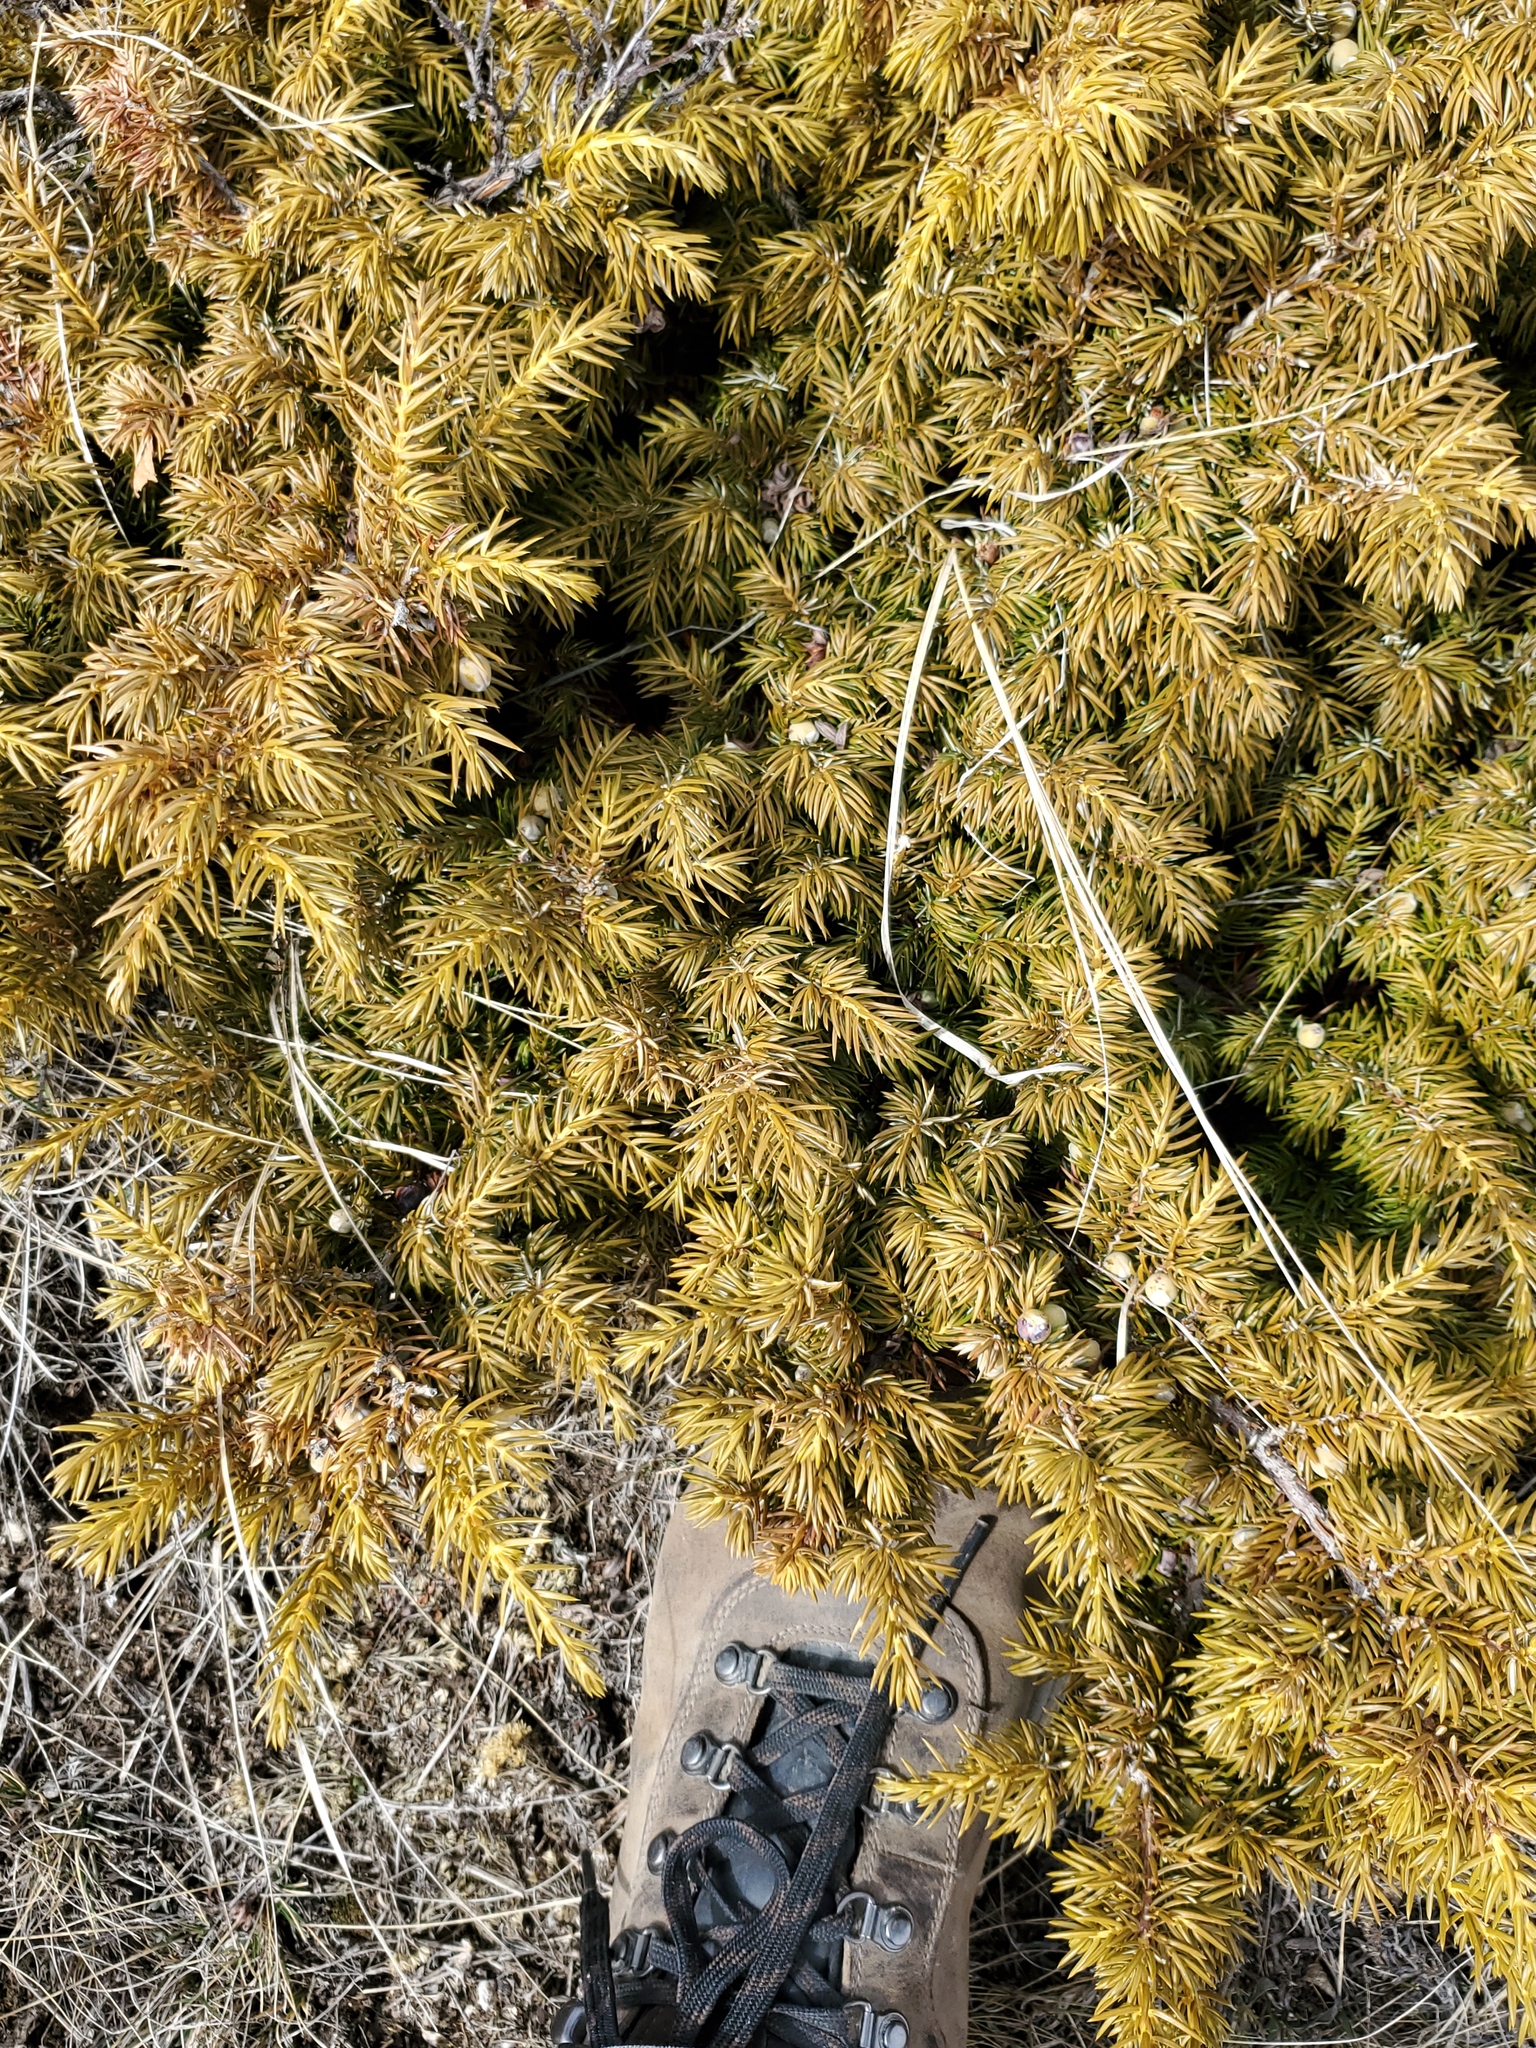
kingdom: Plantae
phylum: Tracheophyta
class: Pinopsida
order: Pinales
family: Cupressaceae
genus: Juniperus
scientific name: Juniperus communis
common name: Common juniper
